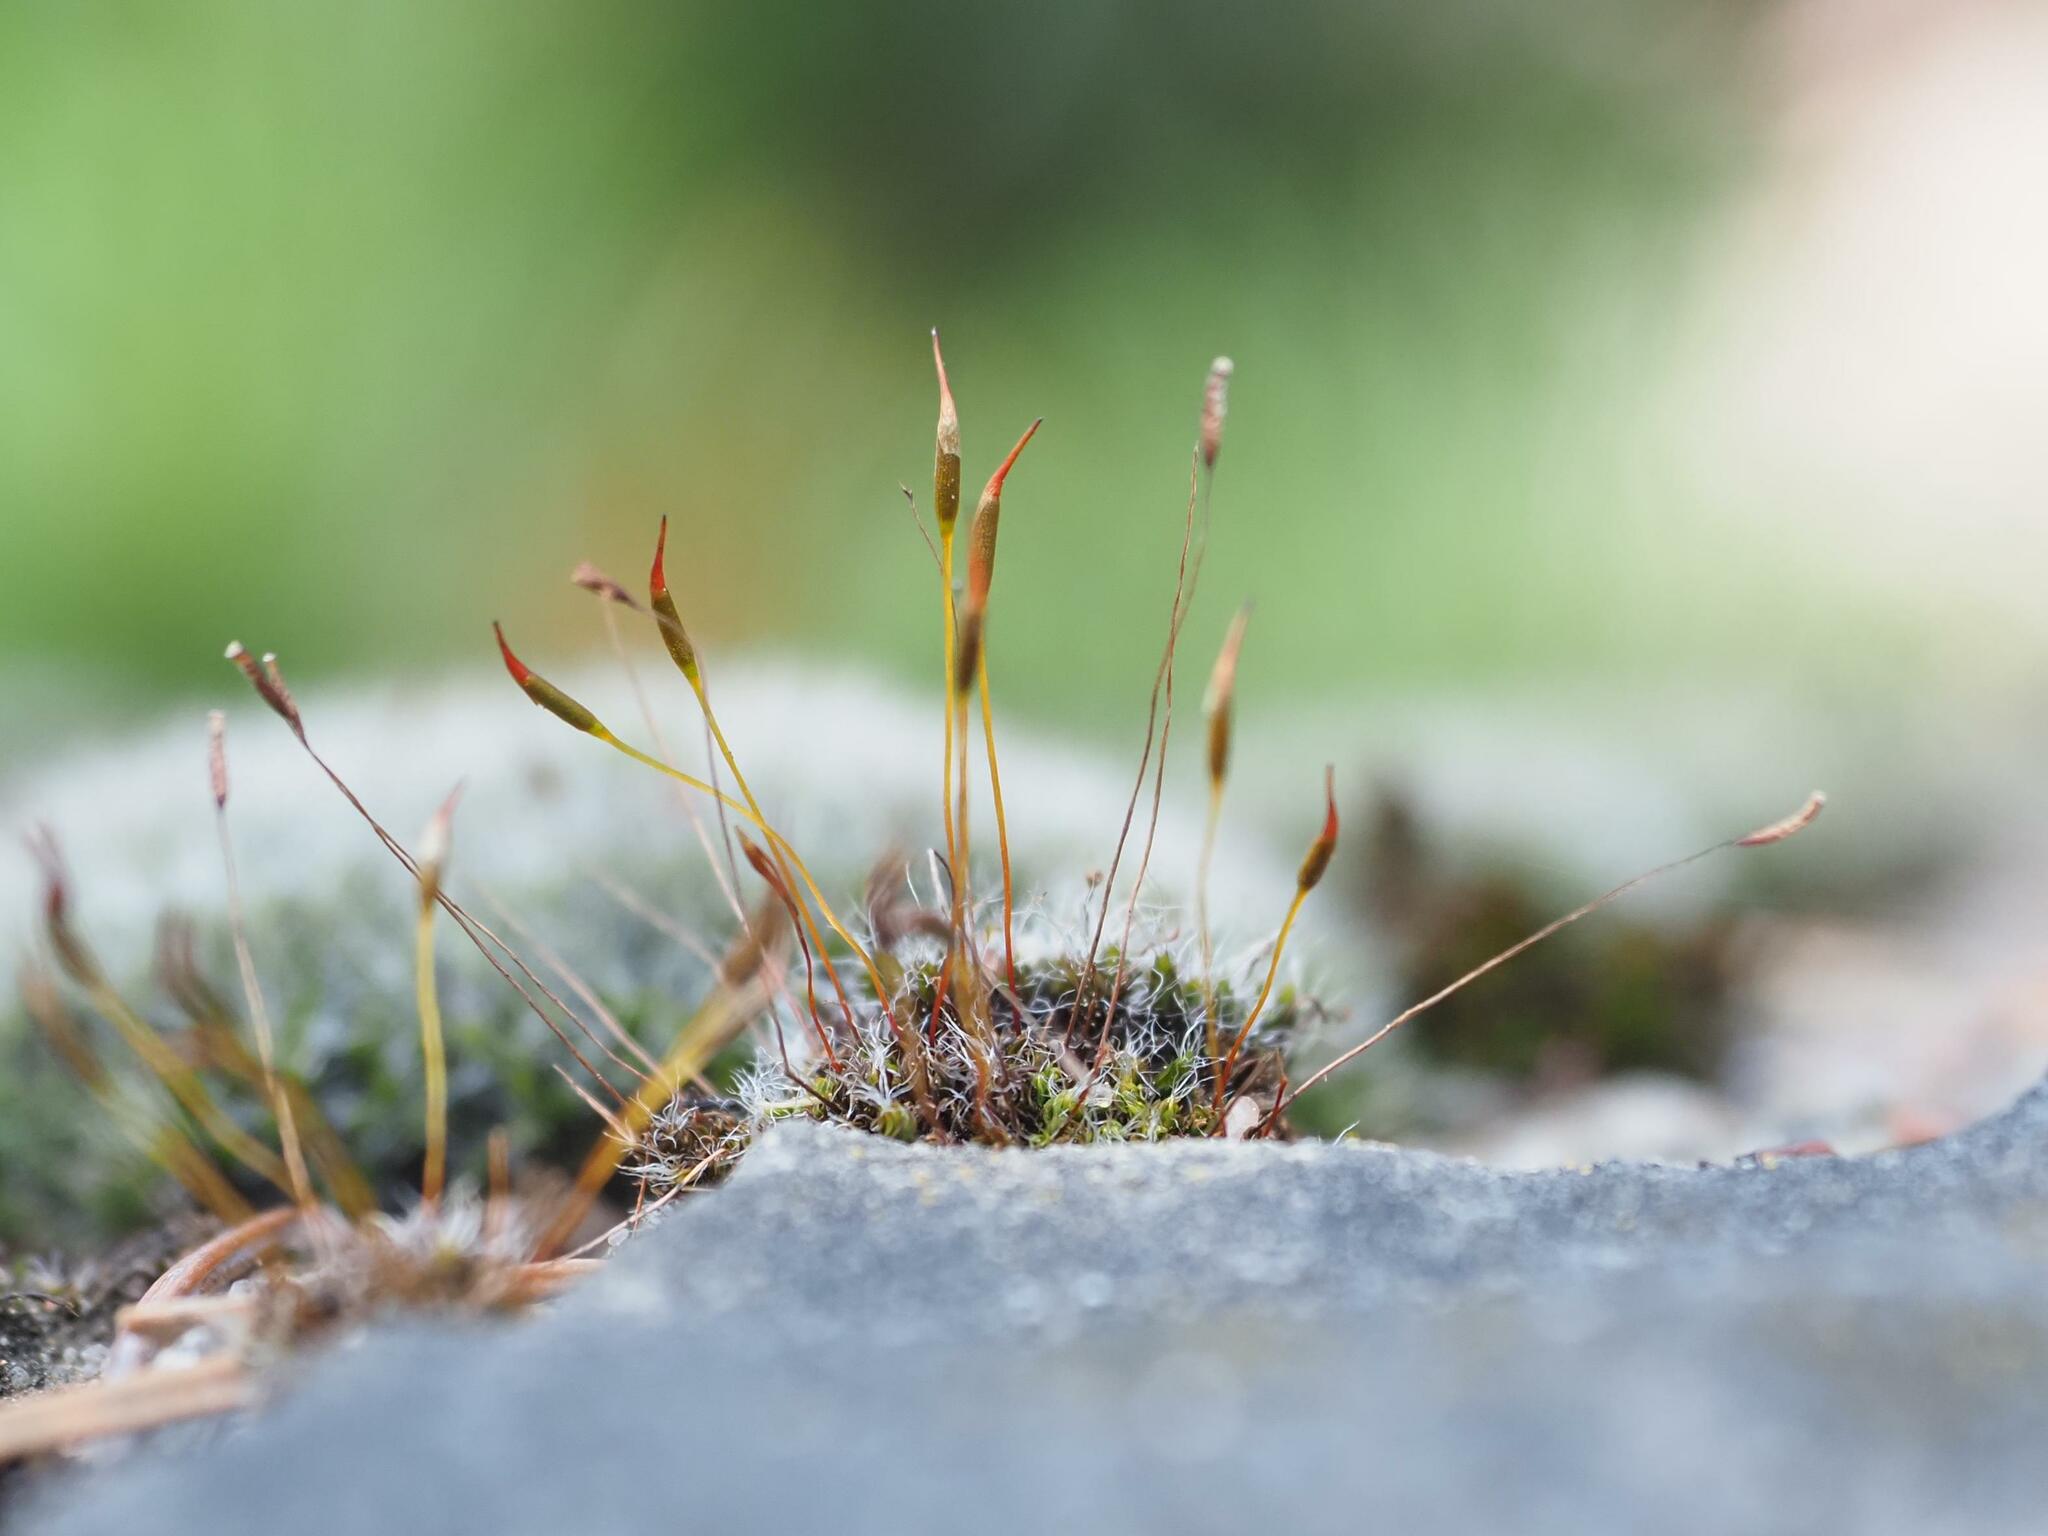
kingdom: Plantae
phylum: Bryophyta
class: Bryopsida
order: Pottiales
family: Pottiaceae
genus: Tortula
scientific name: Tortula muralis
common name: Wall screw-moss
